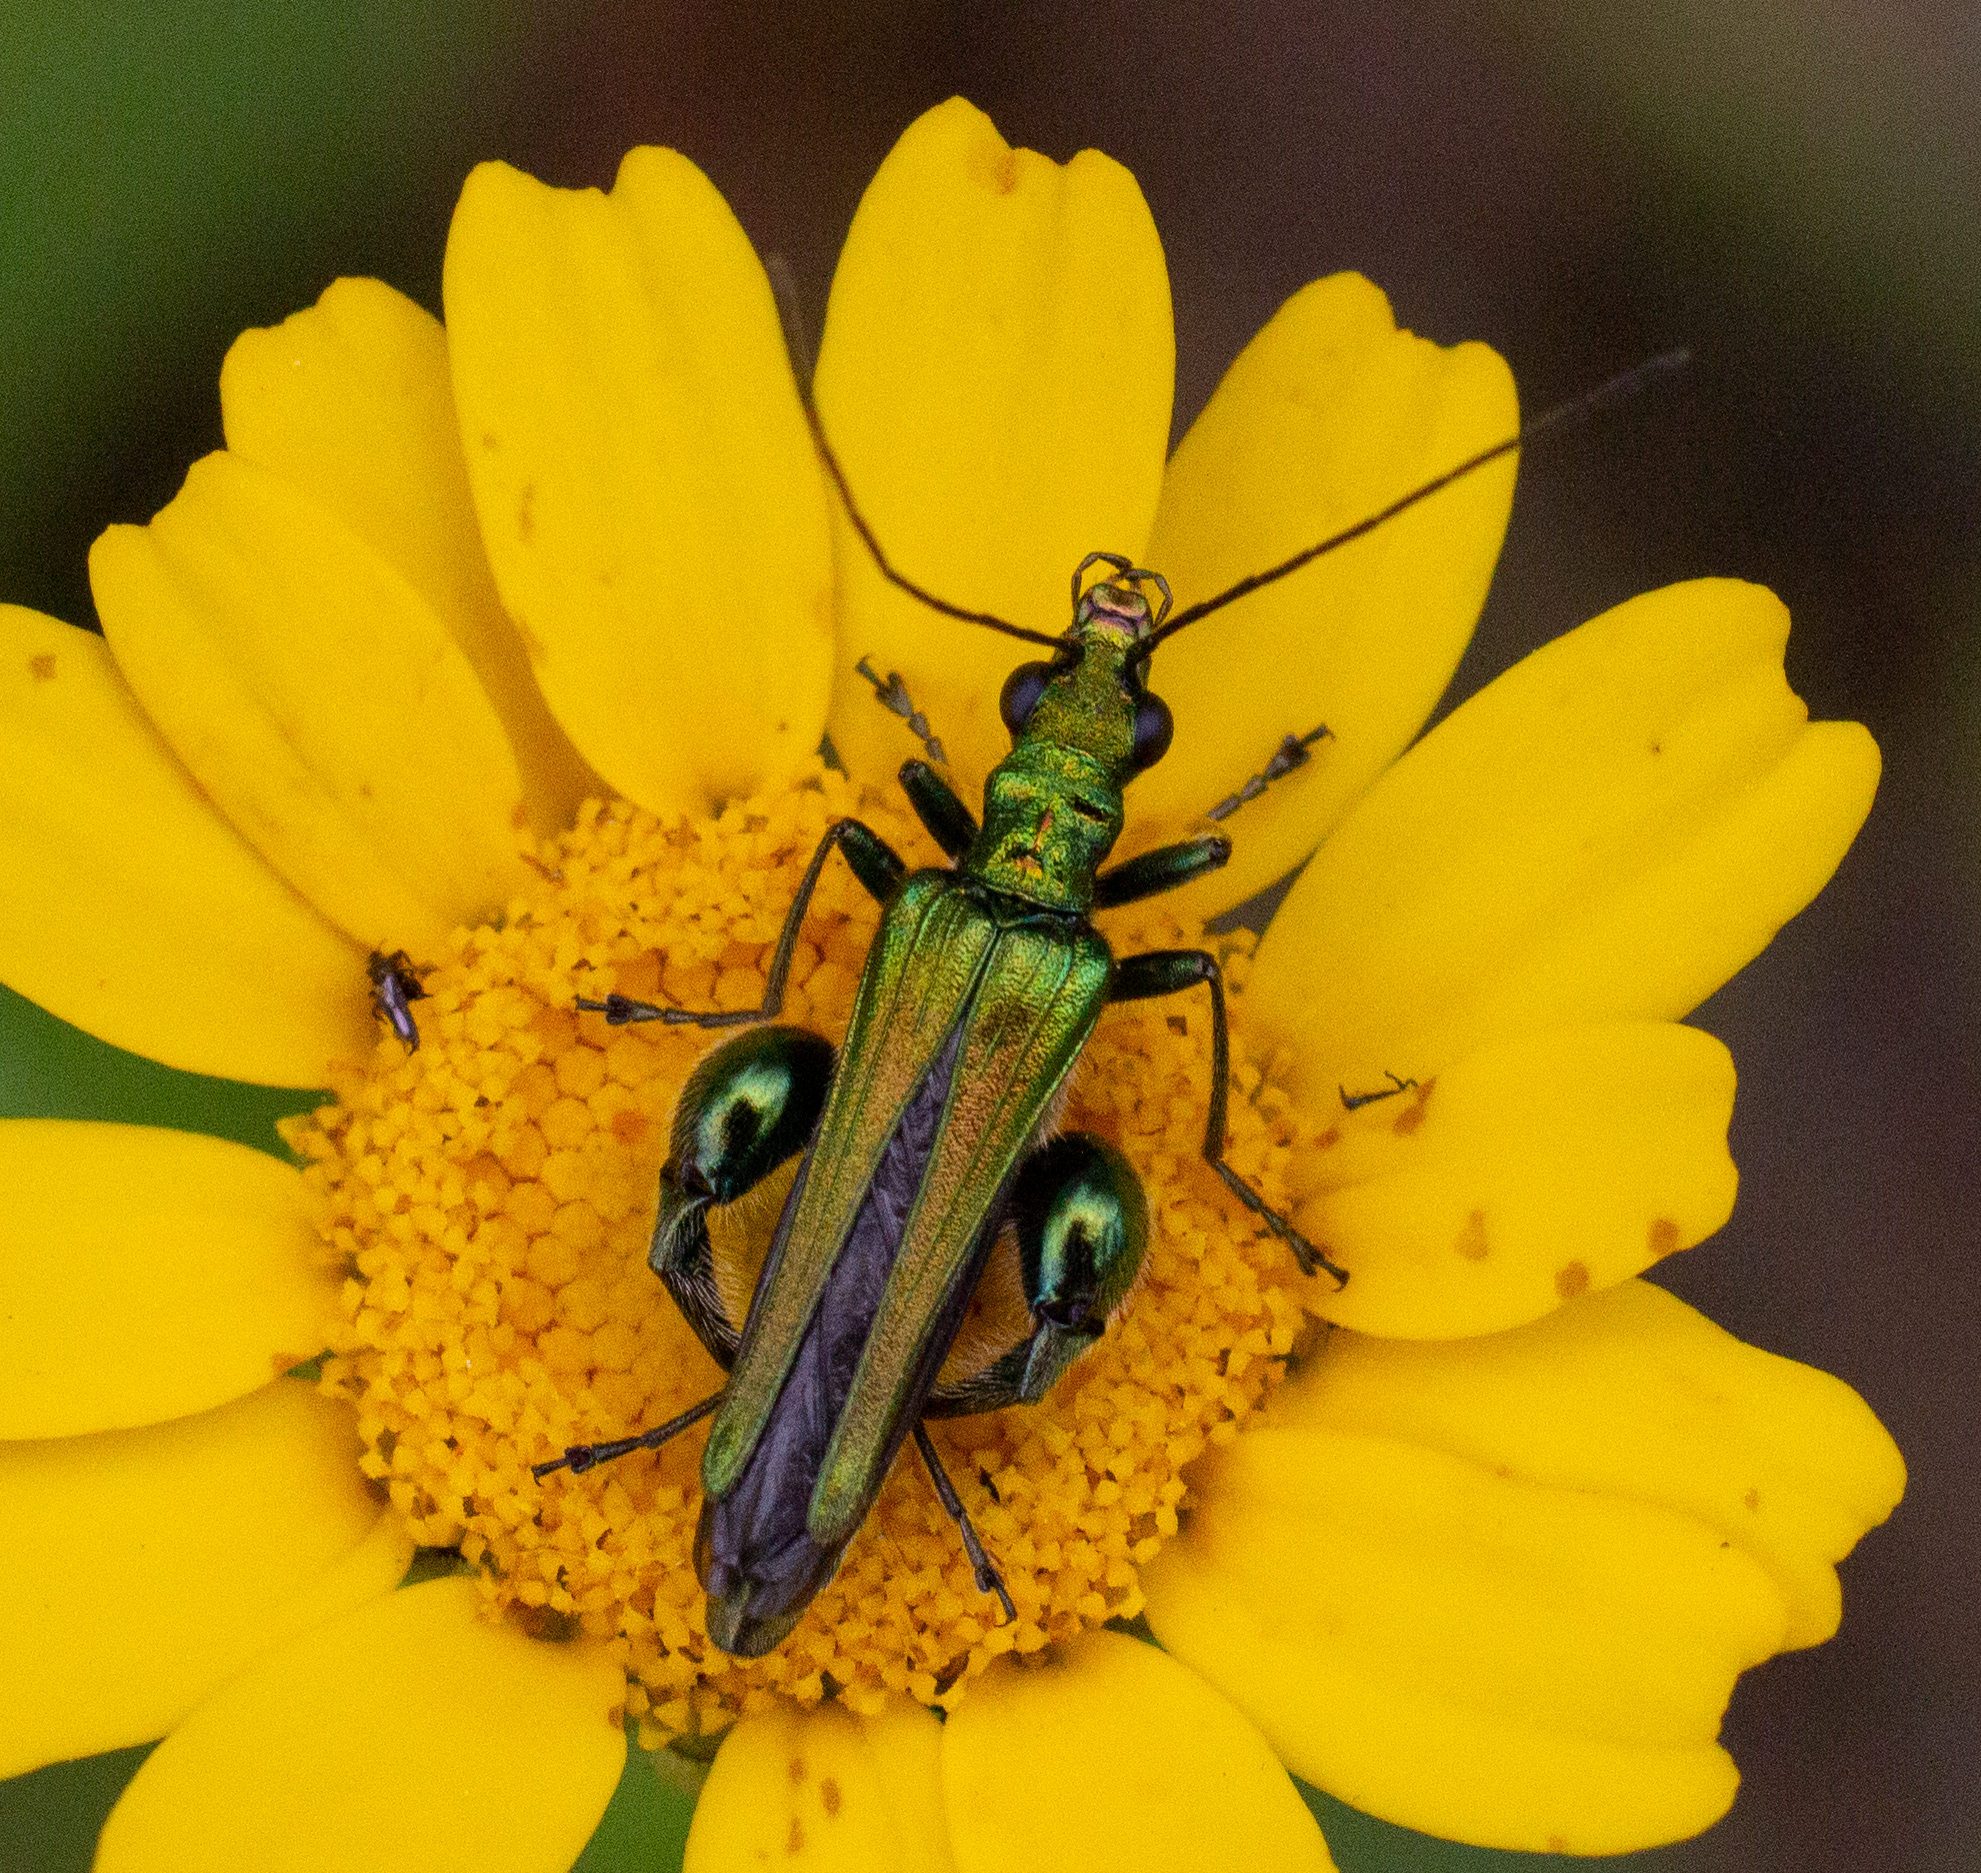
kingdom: Animalia
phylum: Arthropoda
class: Insecta
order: Coleoptera
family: Oedemeridae
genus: Oedemera
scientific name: Oedemera nobilis
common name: Swollen-thighed beetle
